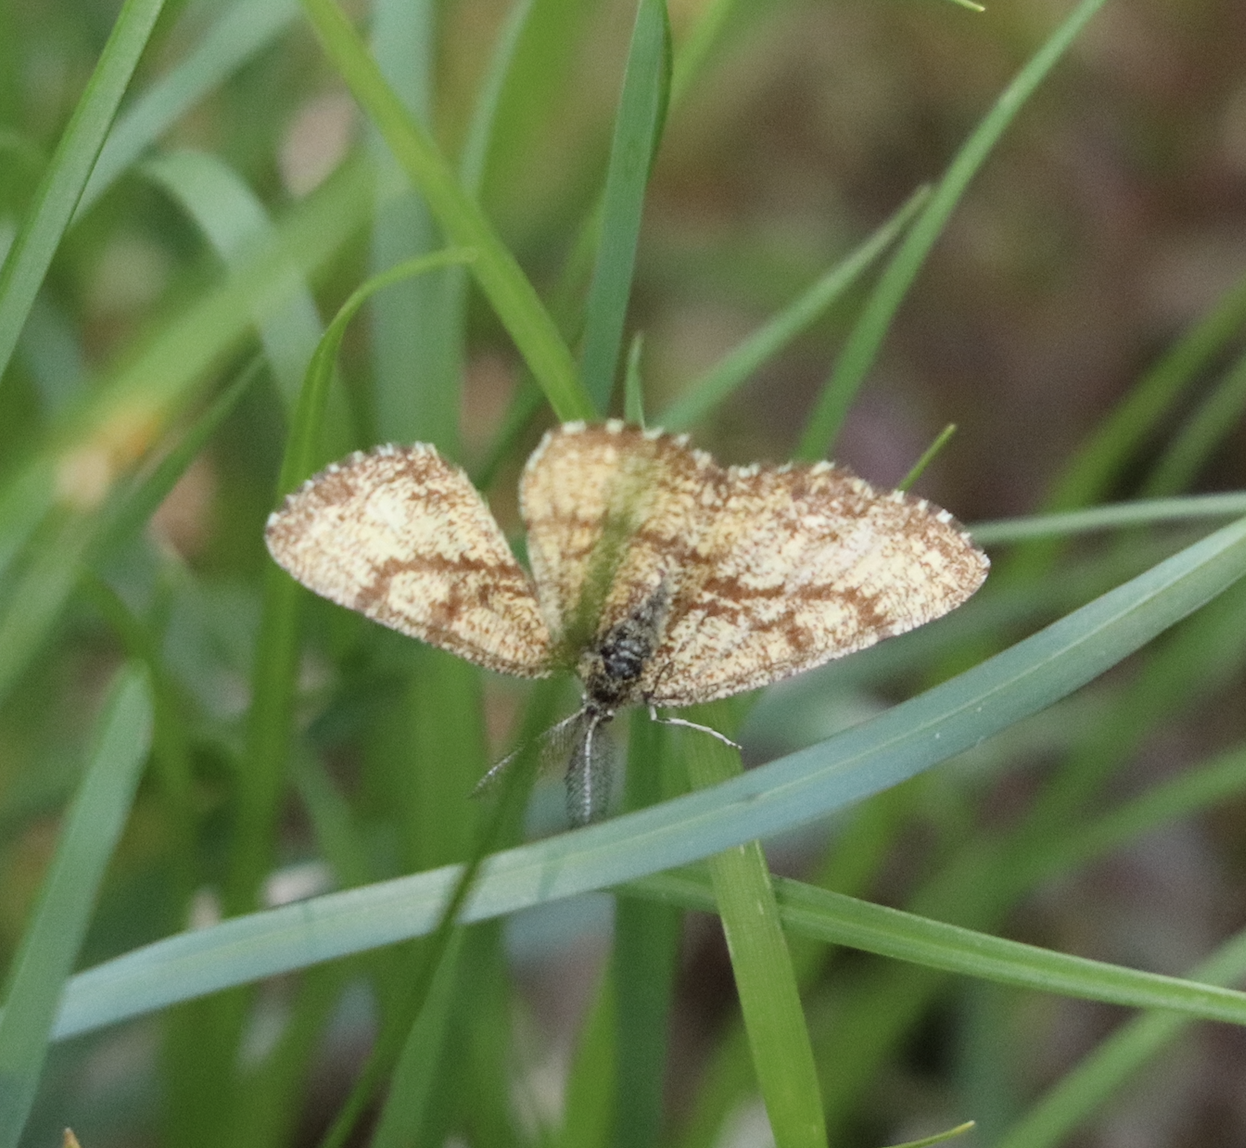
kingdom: Animalia
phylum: Arthropoda
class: Insecta
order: Lepidoptera
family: Geometridae
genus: Ematurga
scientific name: Ematurga atomaria
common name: Common heath
